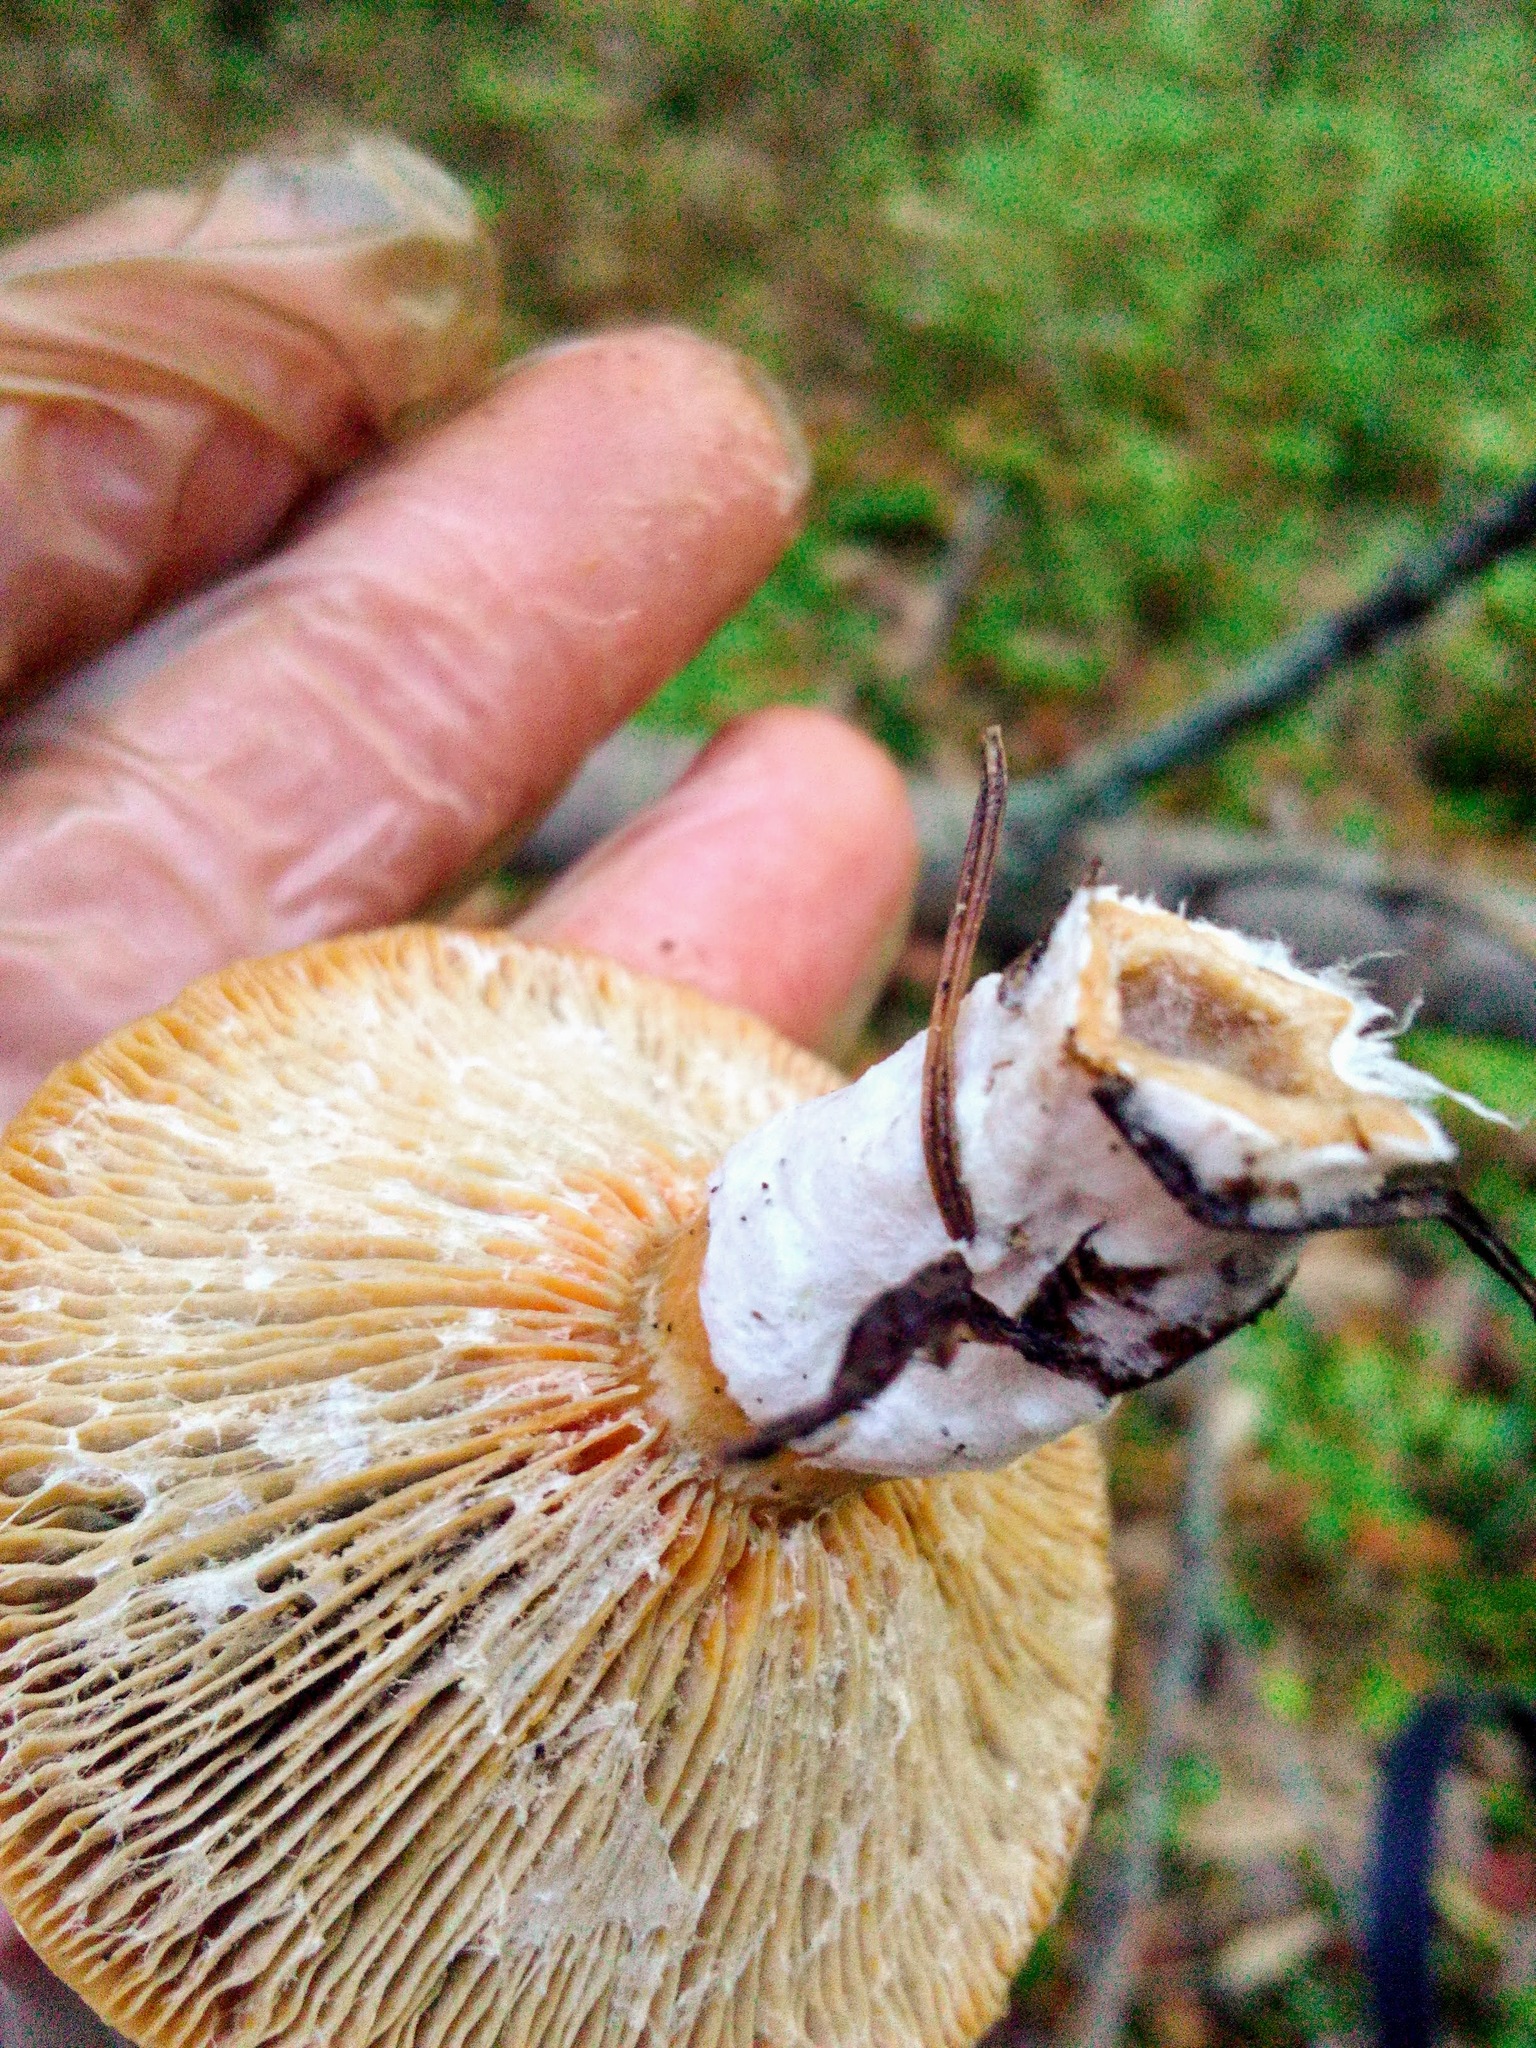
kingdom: Fungi
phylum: Basidiomycota
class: Agaricomycetes
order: Russulales
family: Russulaceae
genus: Lactarius
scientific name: Lactarius deliciosus
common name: Saffron milk-cap
